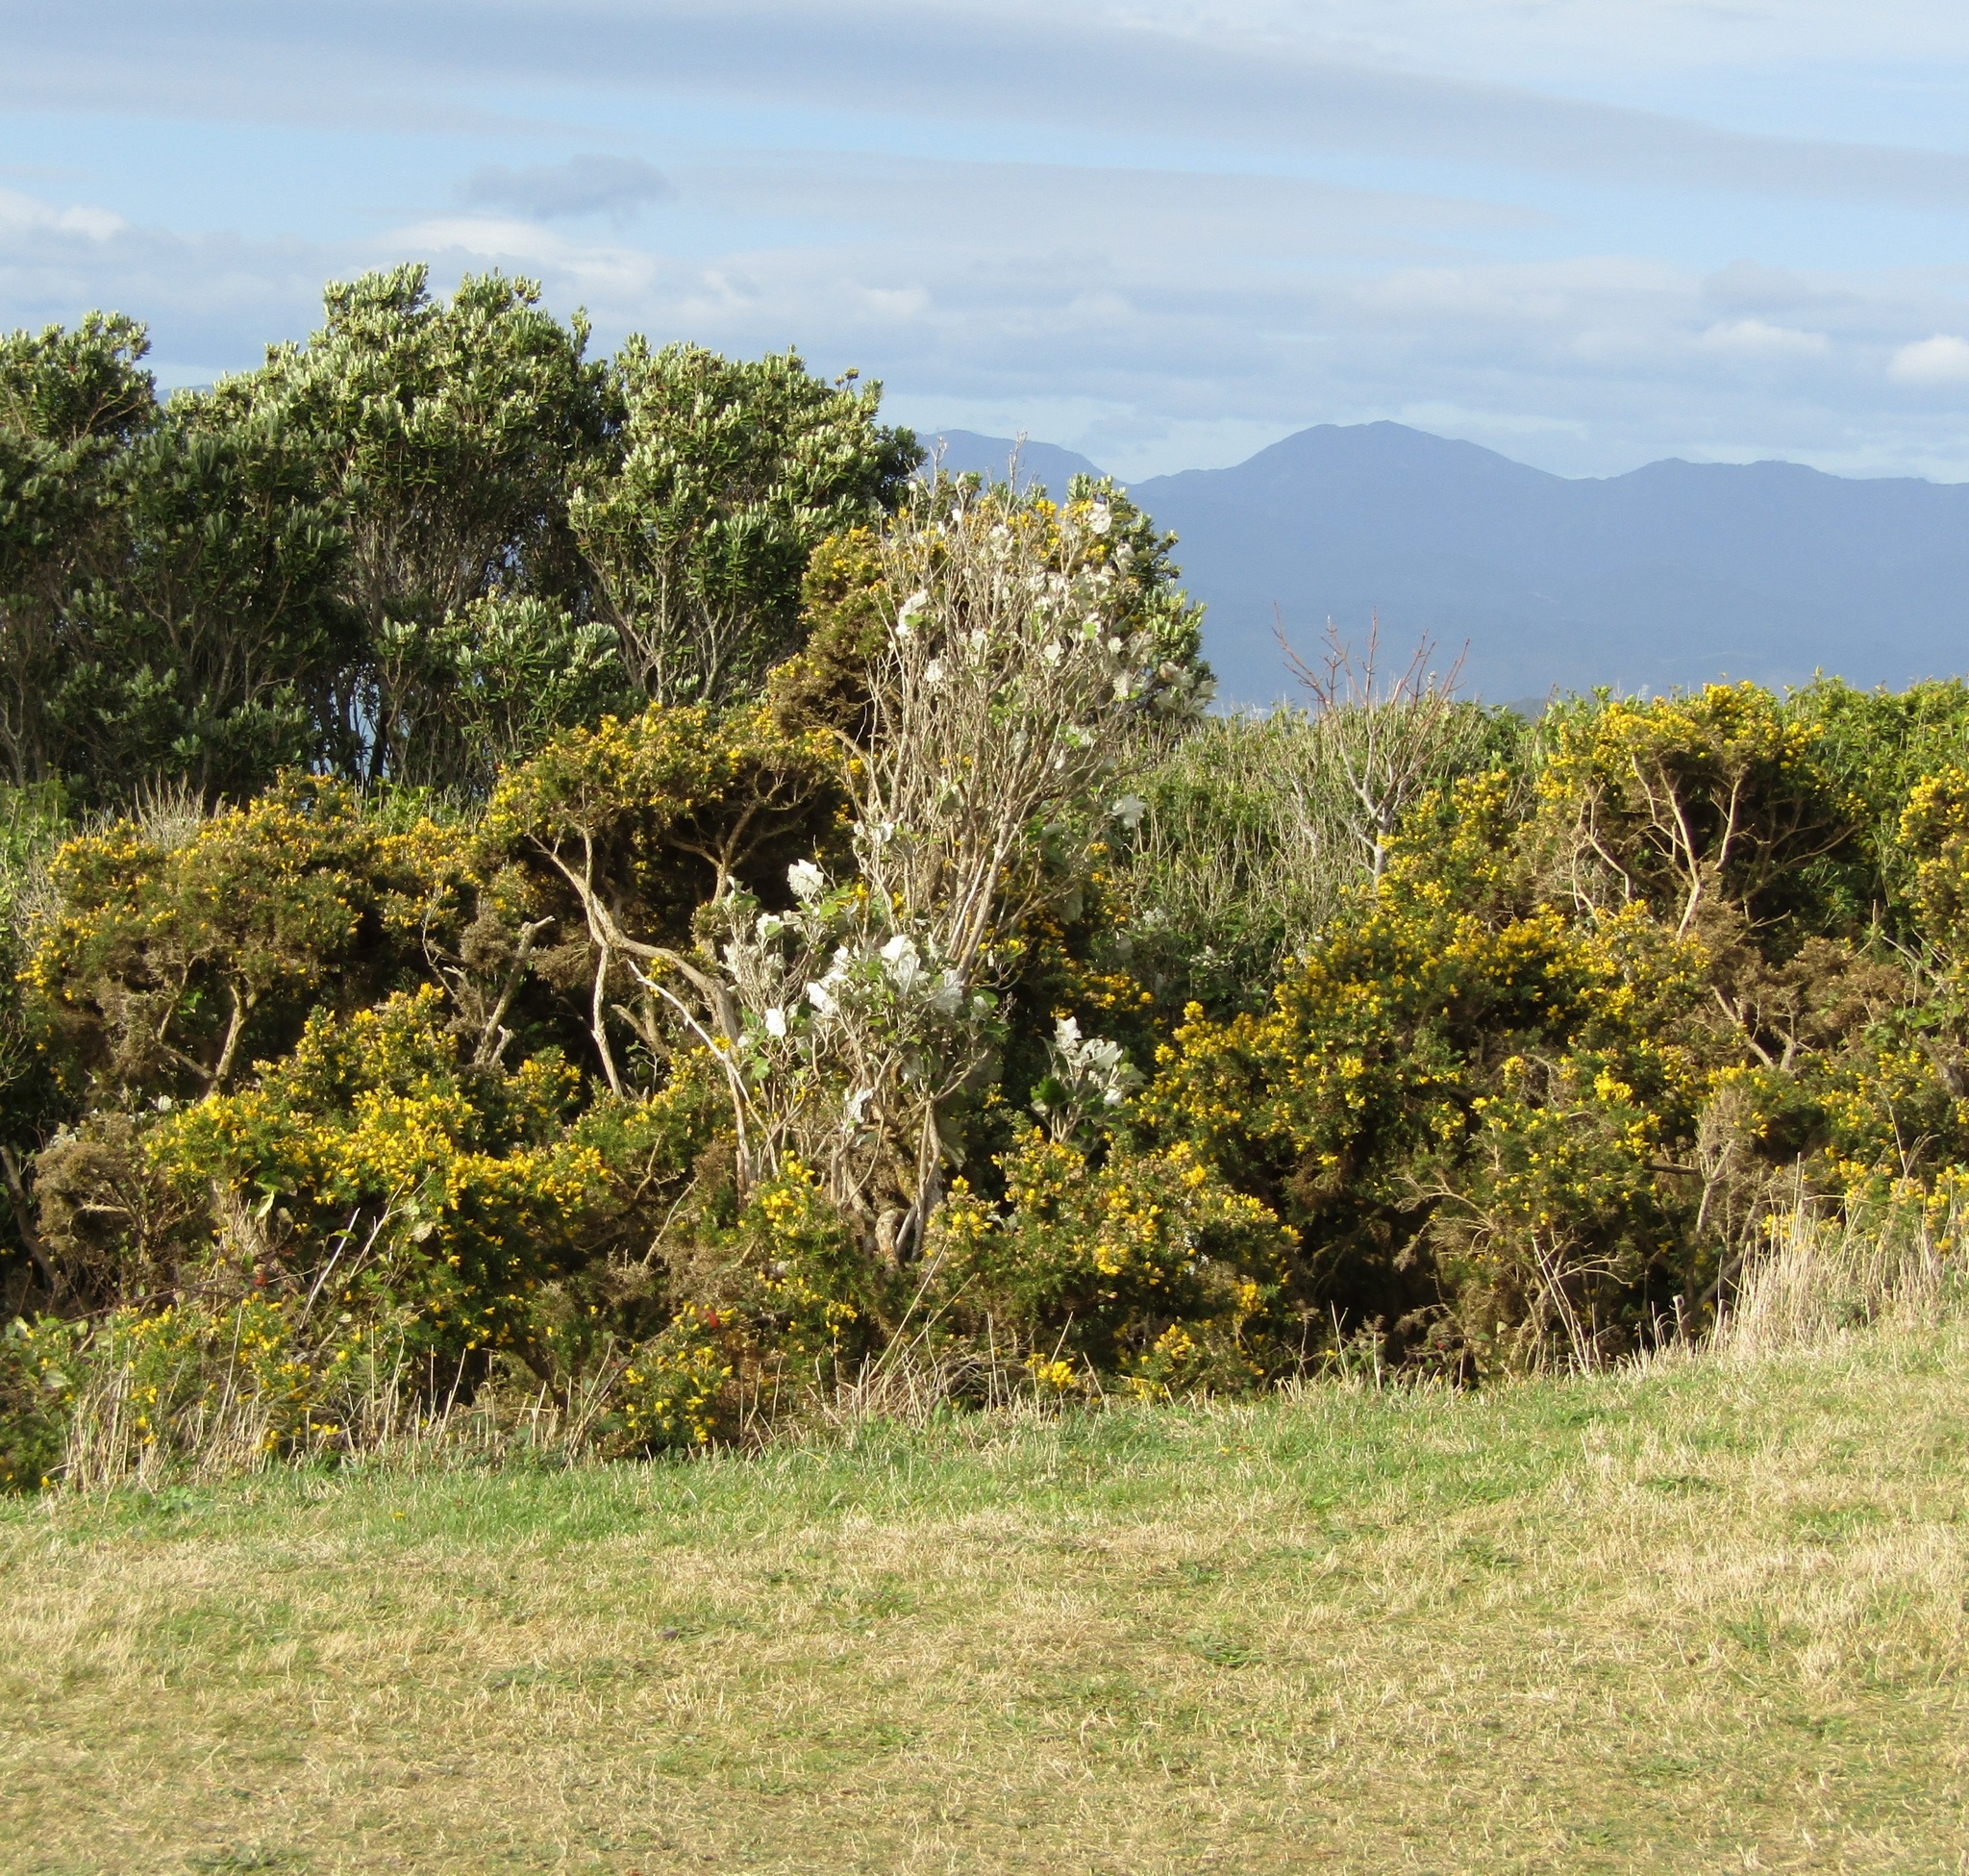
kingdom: Plantae
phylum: Tracheophyta
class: Magnoliopsida
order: Fabales
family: Fabaceae
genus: Ulex
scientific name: Ulex europaeus
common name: Common gorse
